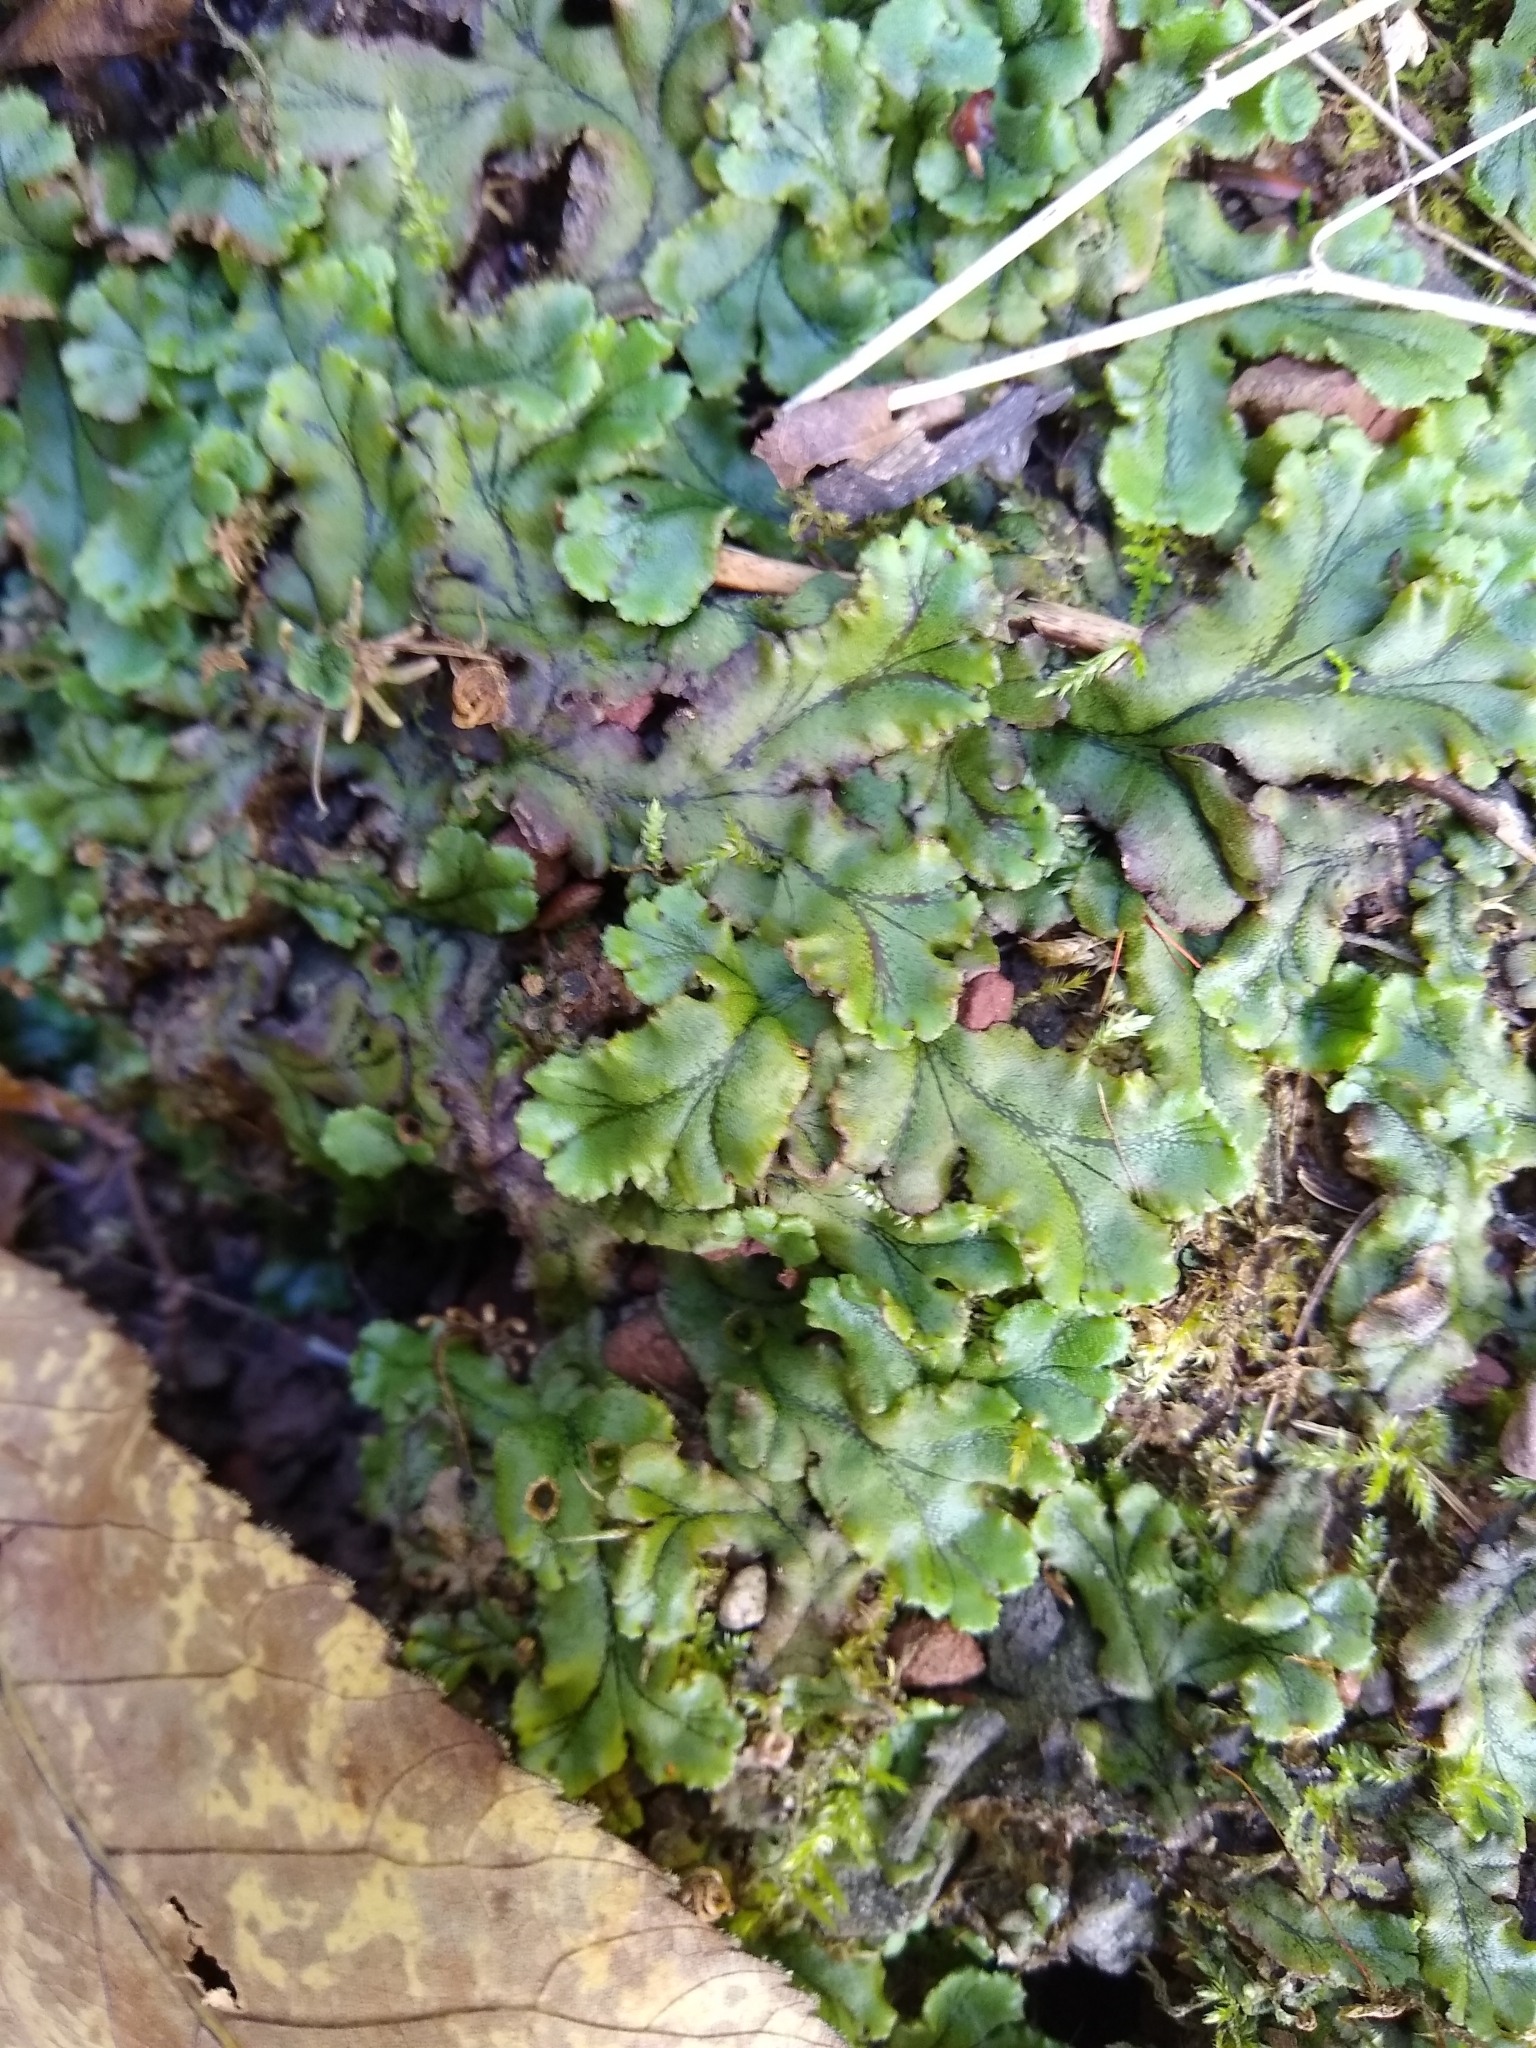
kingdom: Plantae
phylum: Marchantiophyta
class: Marchantiopsida
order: Marchantiales
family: Marchantiaceae
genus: Marchantia
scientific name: Marchantia polymorpha
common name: Common liverwort
